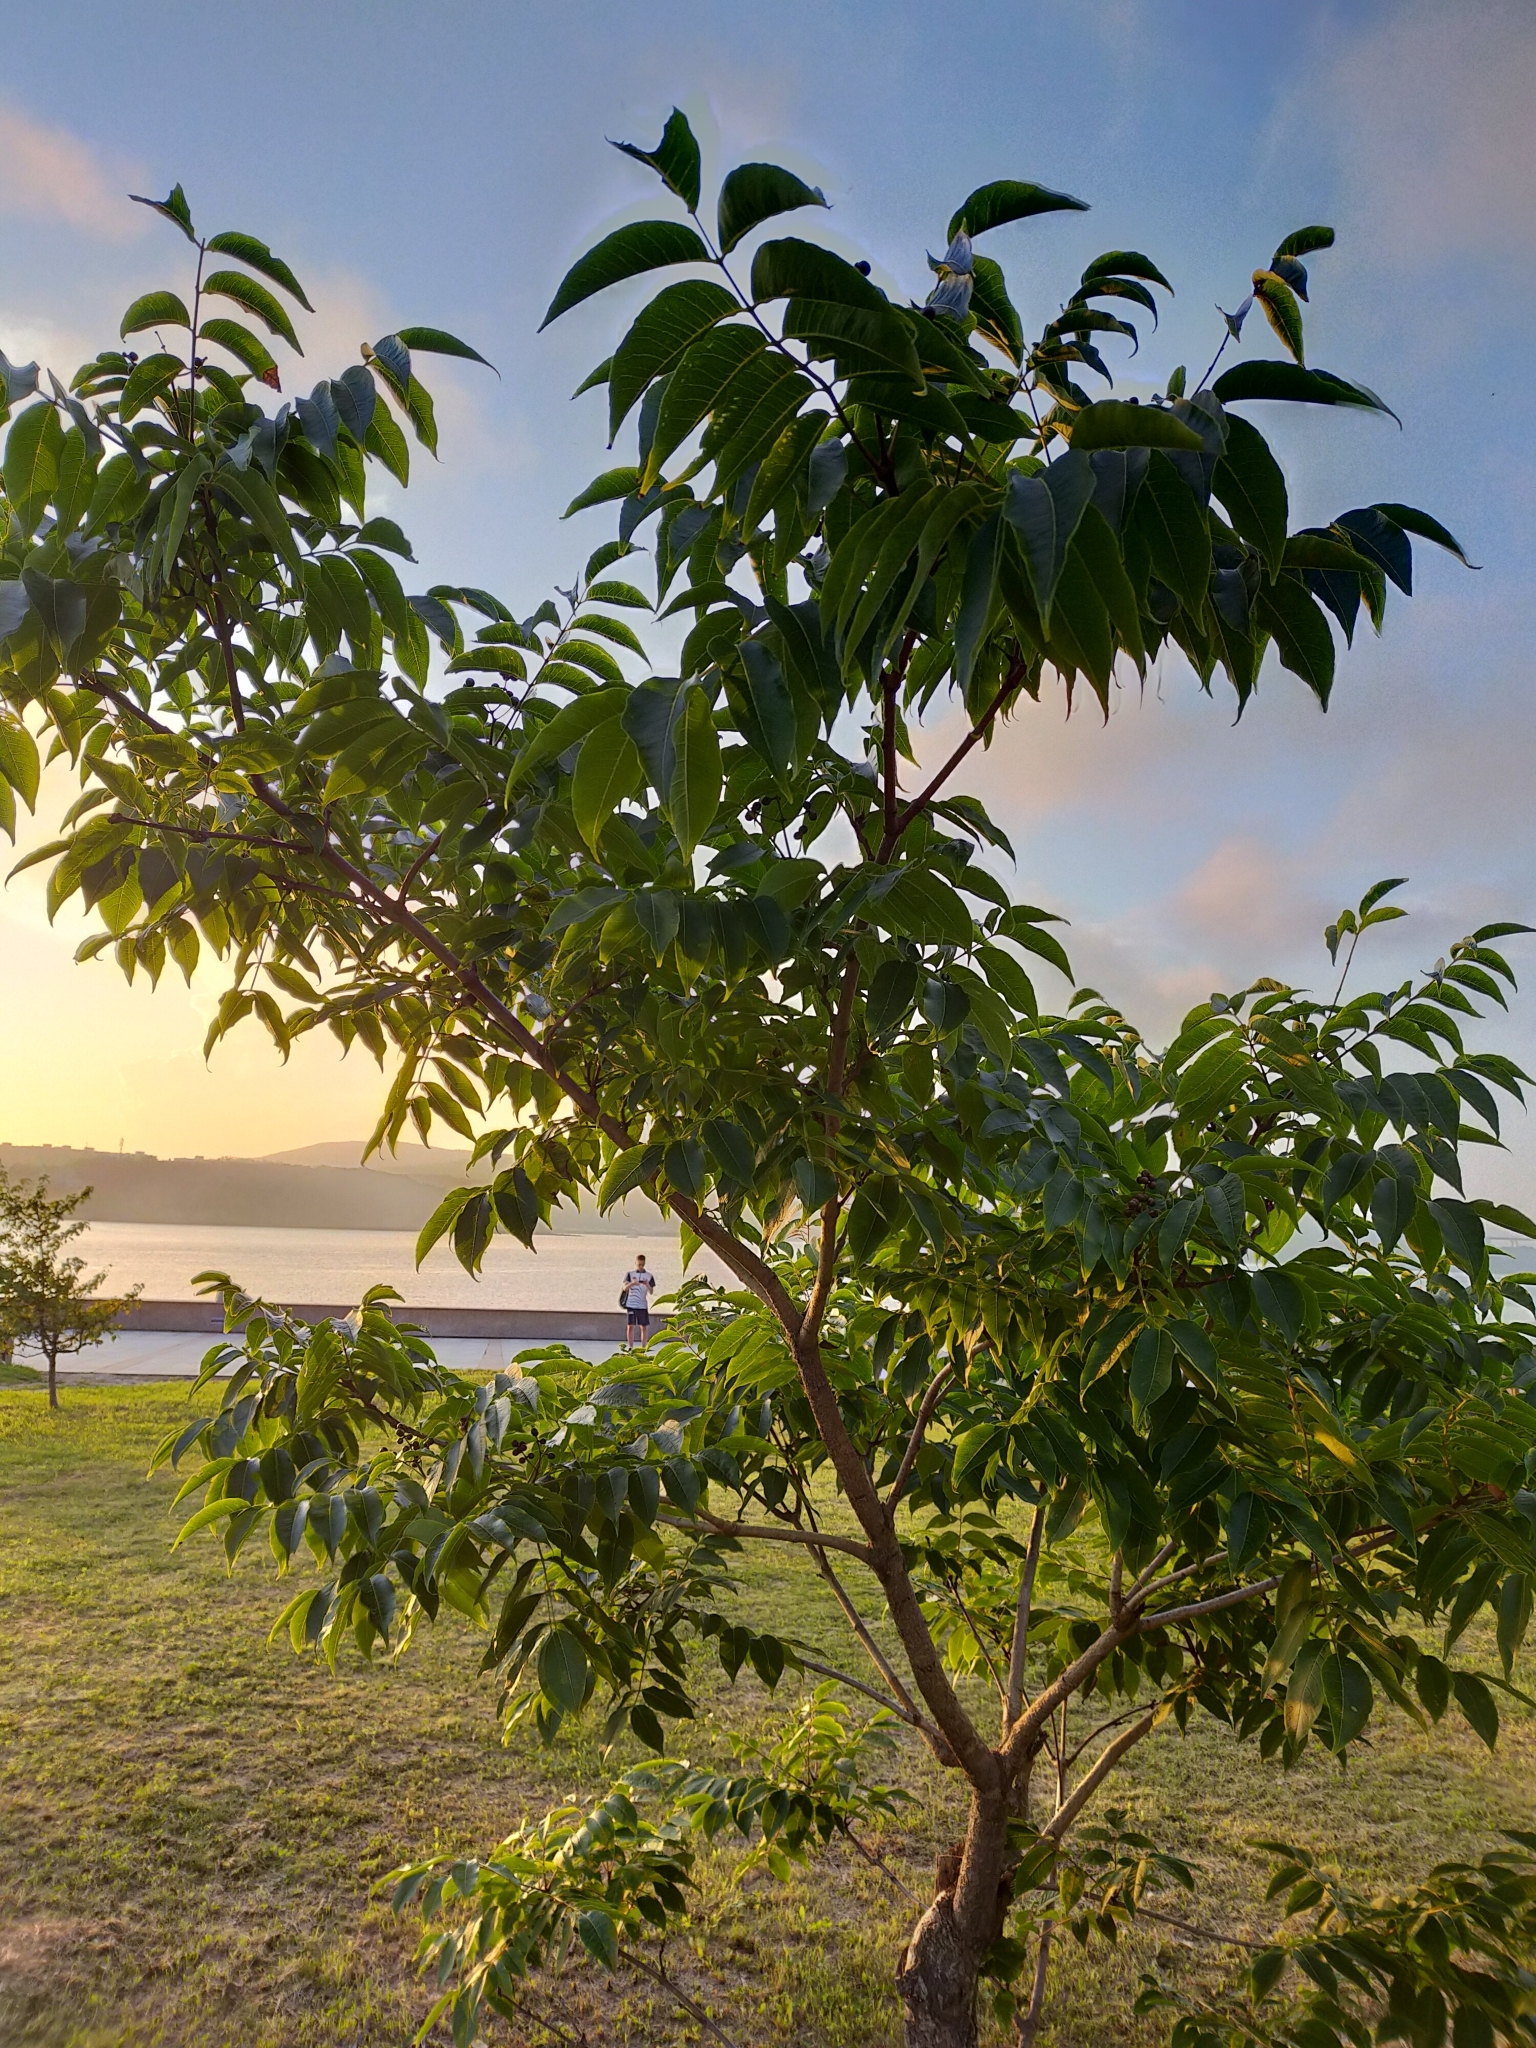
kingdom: Plantae
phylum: Tracheophyta
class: Magnoliopsida
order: Sapindales
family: Rutaceae
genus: Phellodendron
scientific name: Phellodendron amurense
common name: Amur corktree
